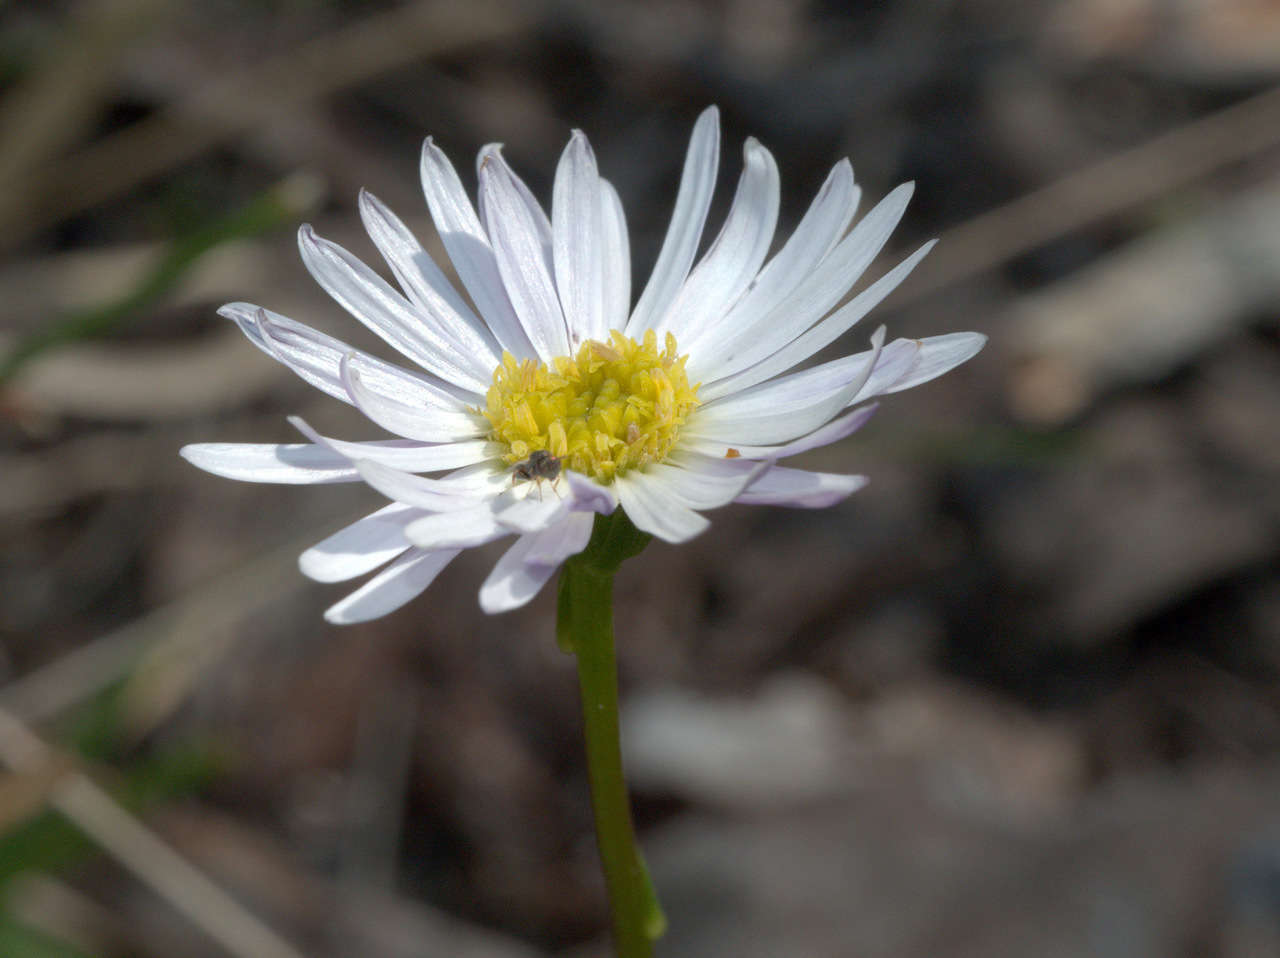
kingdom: Plantae
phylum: Tracheophyta
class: Magnoliopsida
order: Asterales
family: Asteraceae
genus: Allittia
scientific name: Allittia uliginosa
